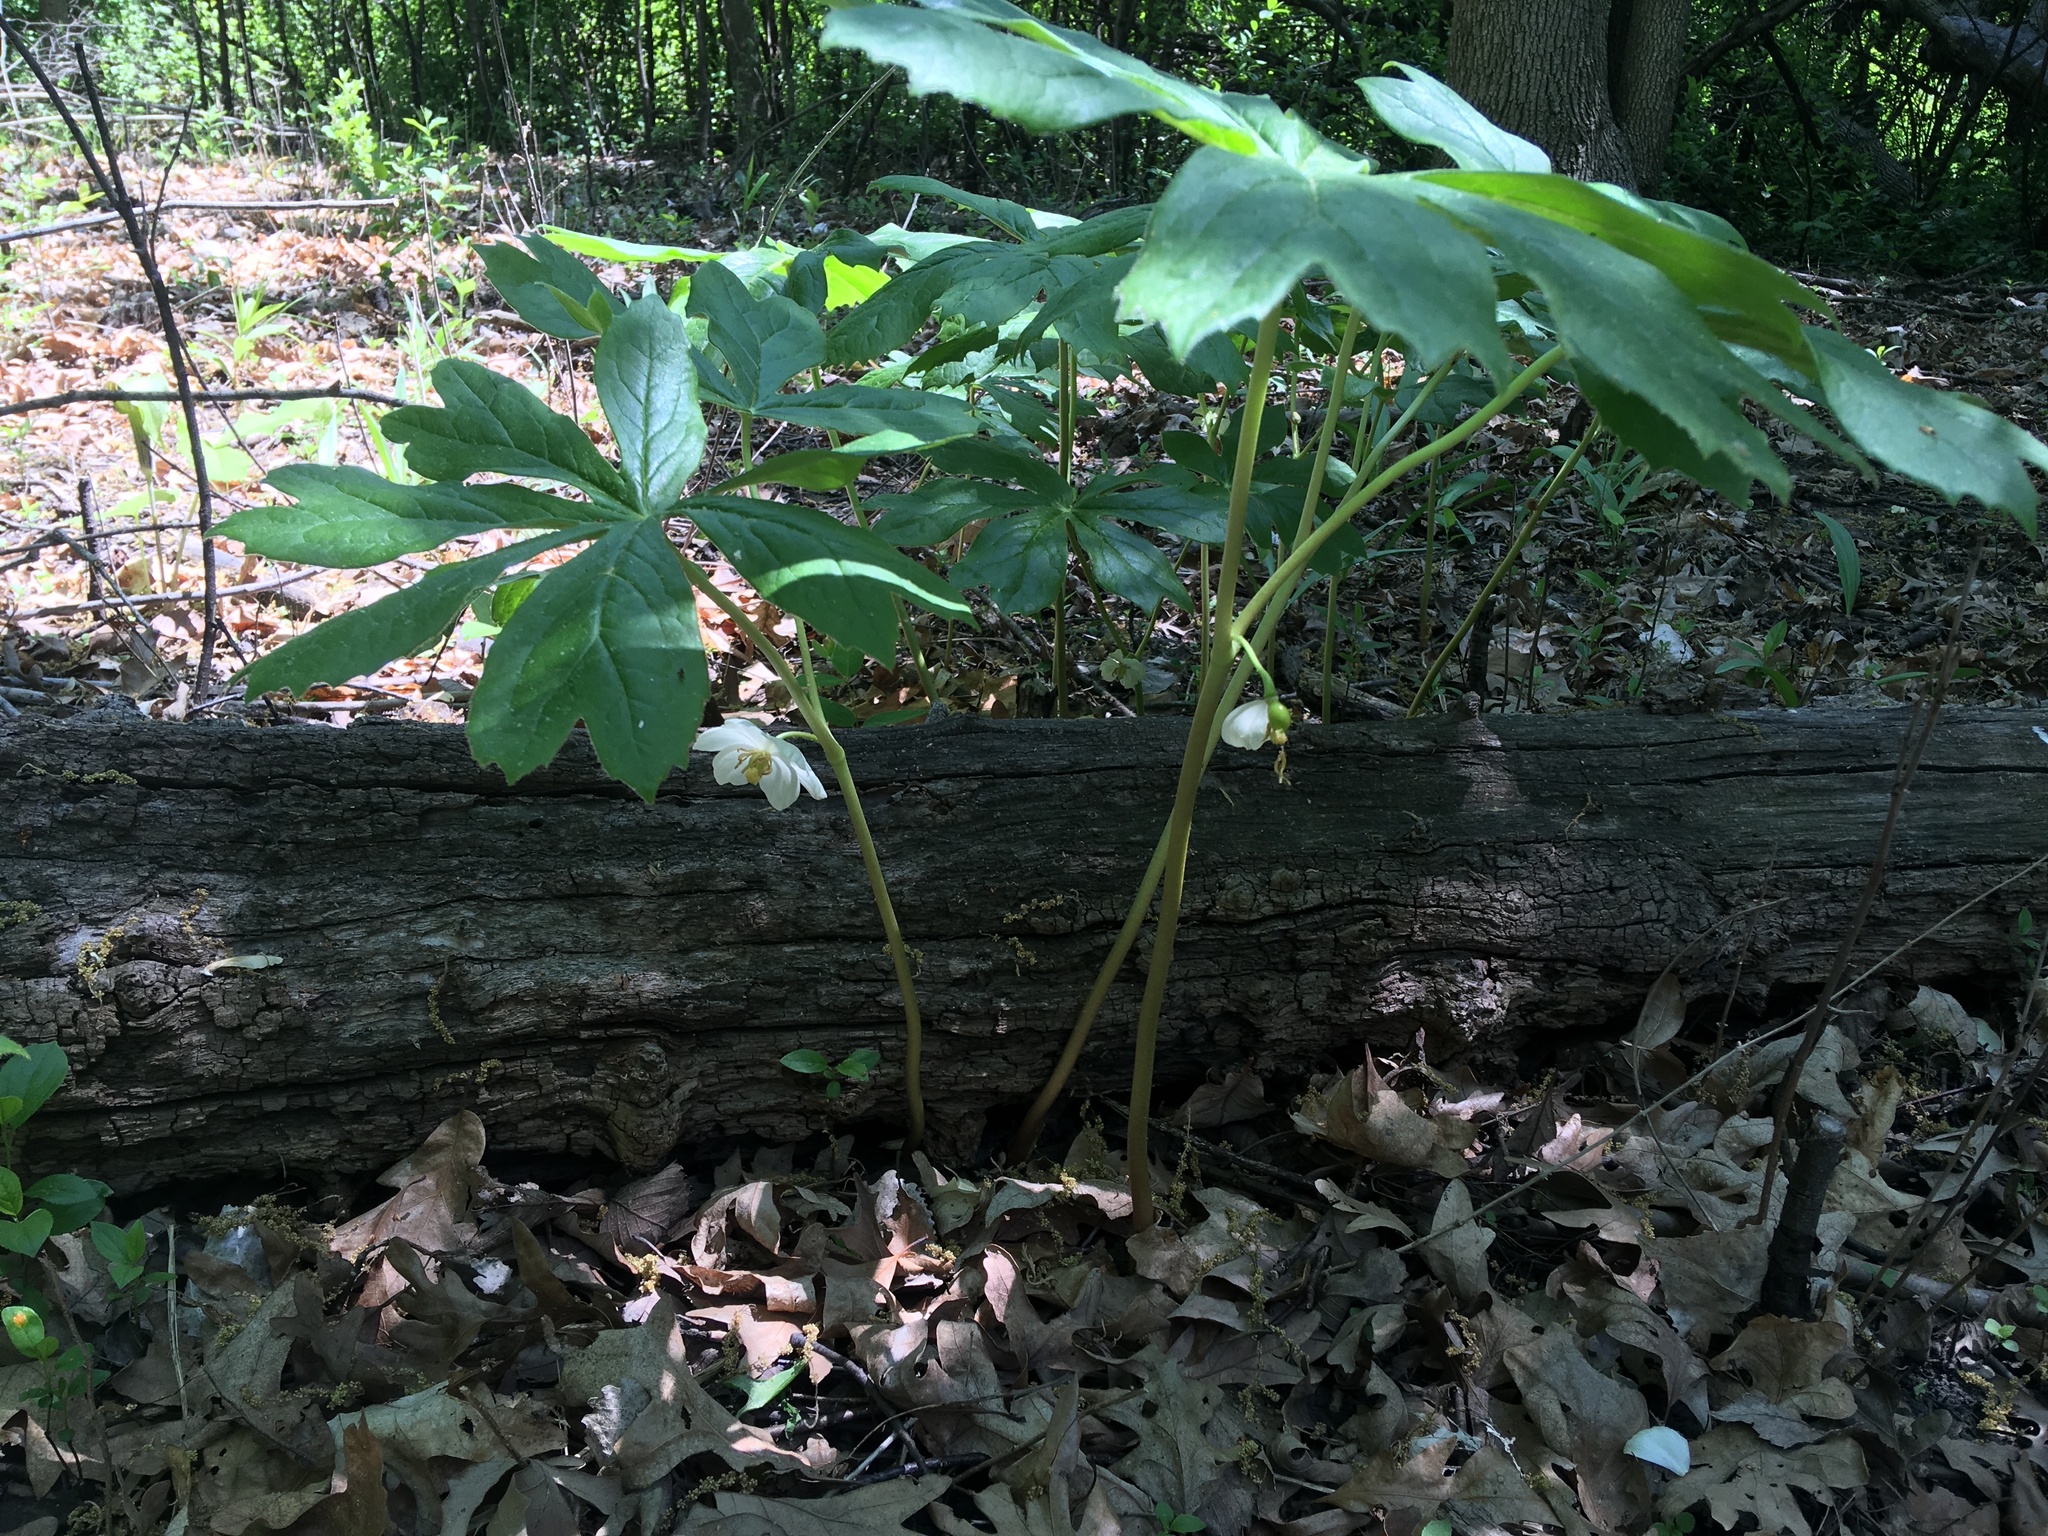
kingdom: Plantae
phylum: Tracheophyta
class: Magnoliopsida
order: Ranunculales
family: Berberidaceae
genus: Podophyllum
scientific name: Podophyllum peltatum
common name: Wild mandrake
